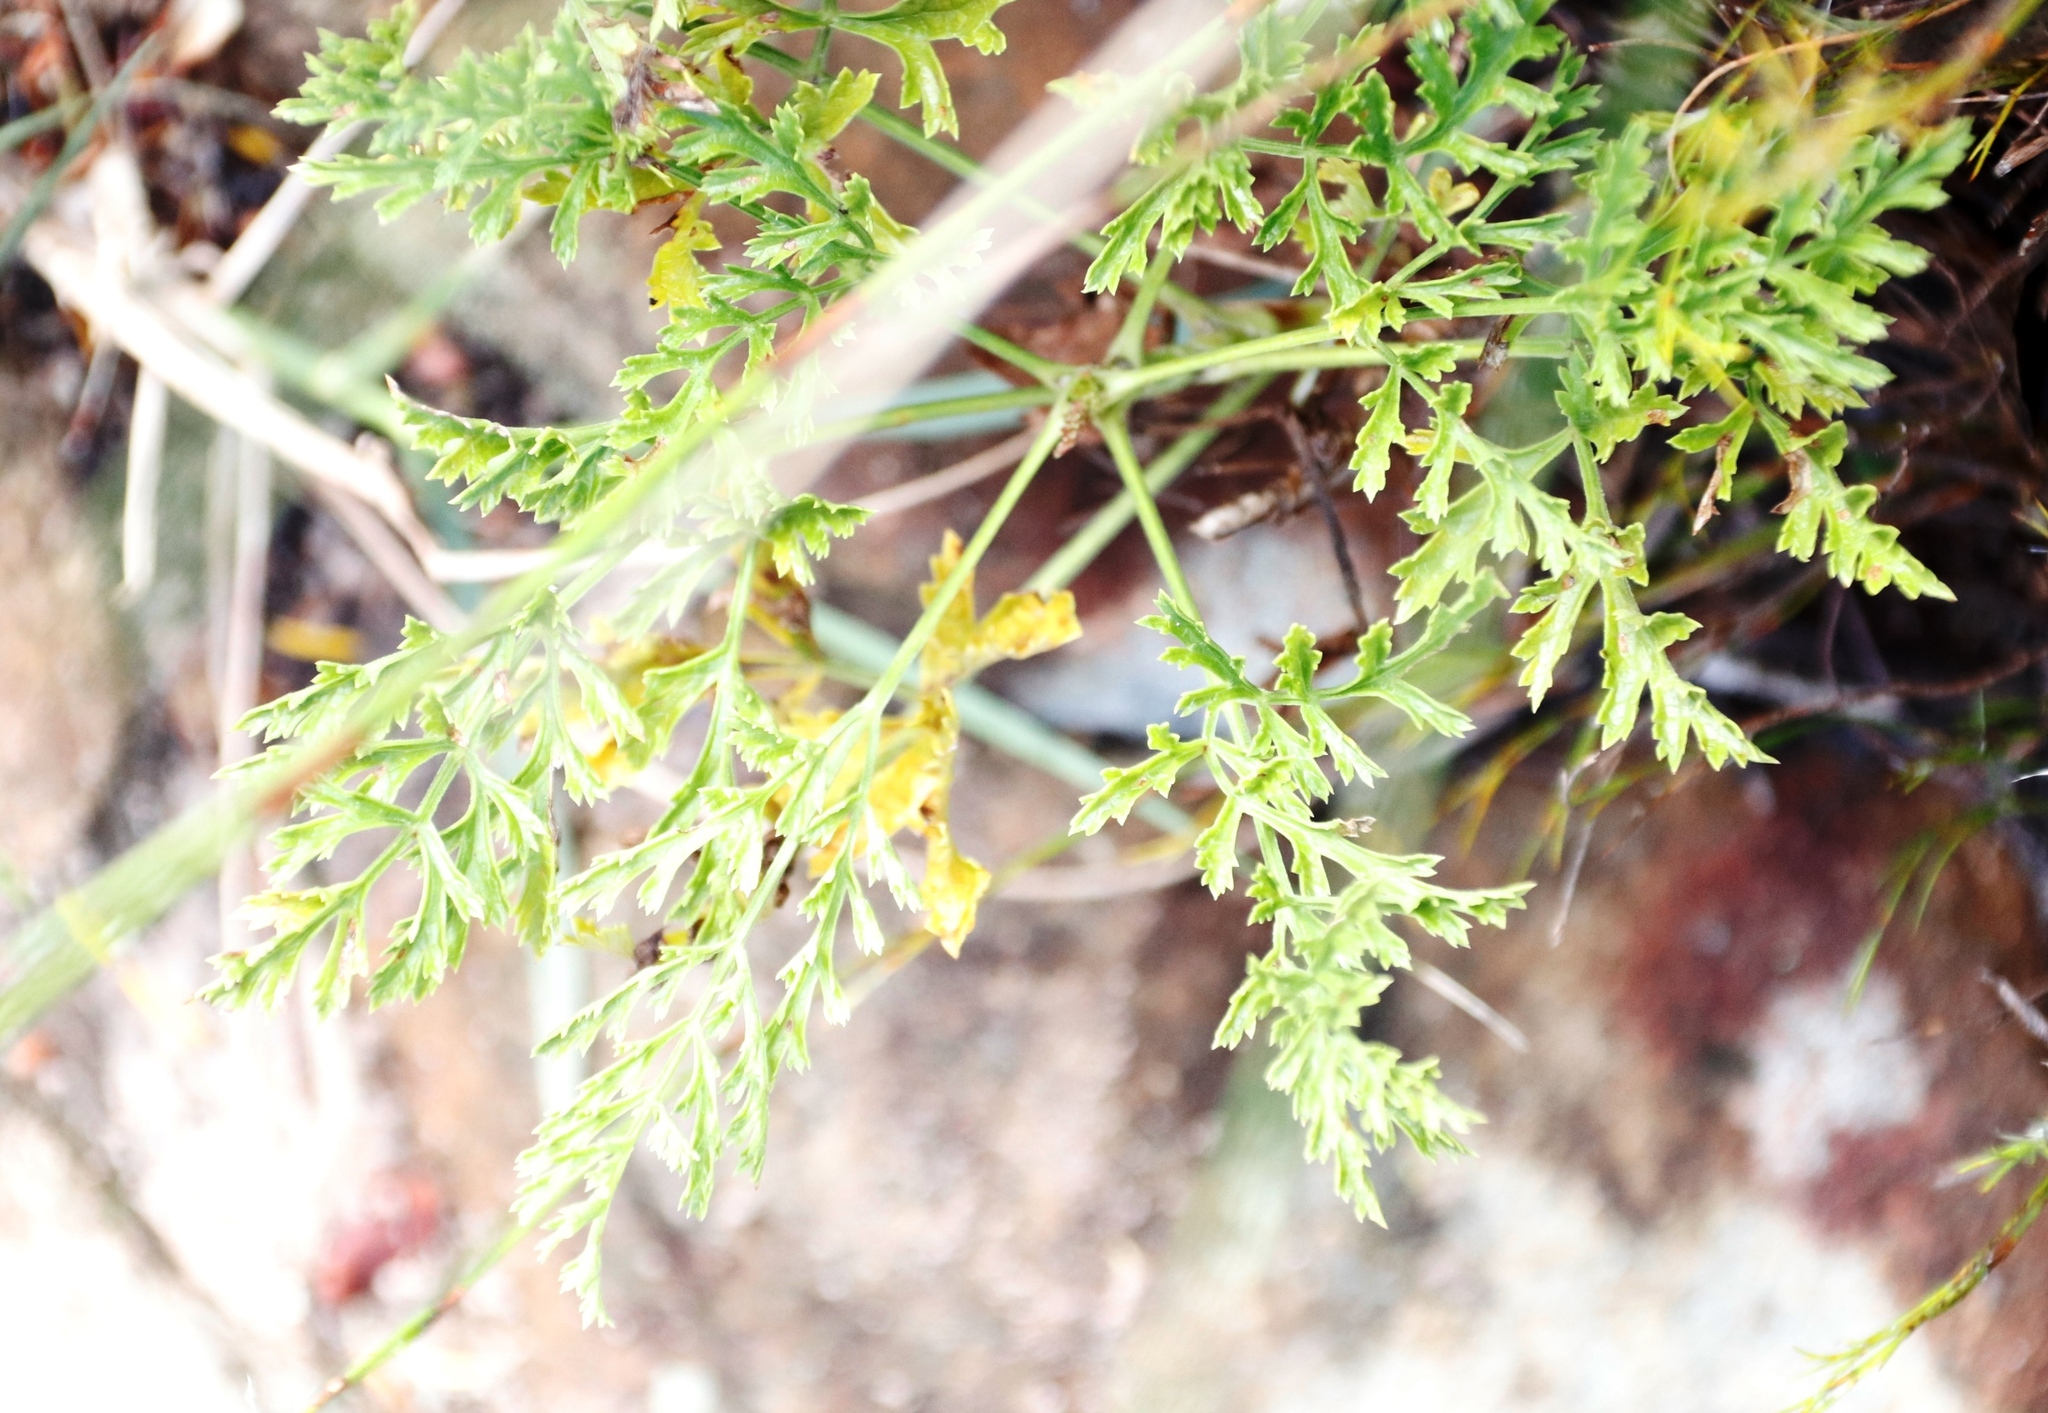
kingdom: Plantae
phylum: Tracheophyta
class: Magnoliopsida
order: Apiales
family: Apiaceae
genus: Glia
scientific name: Glia prolifera
